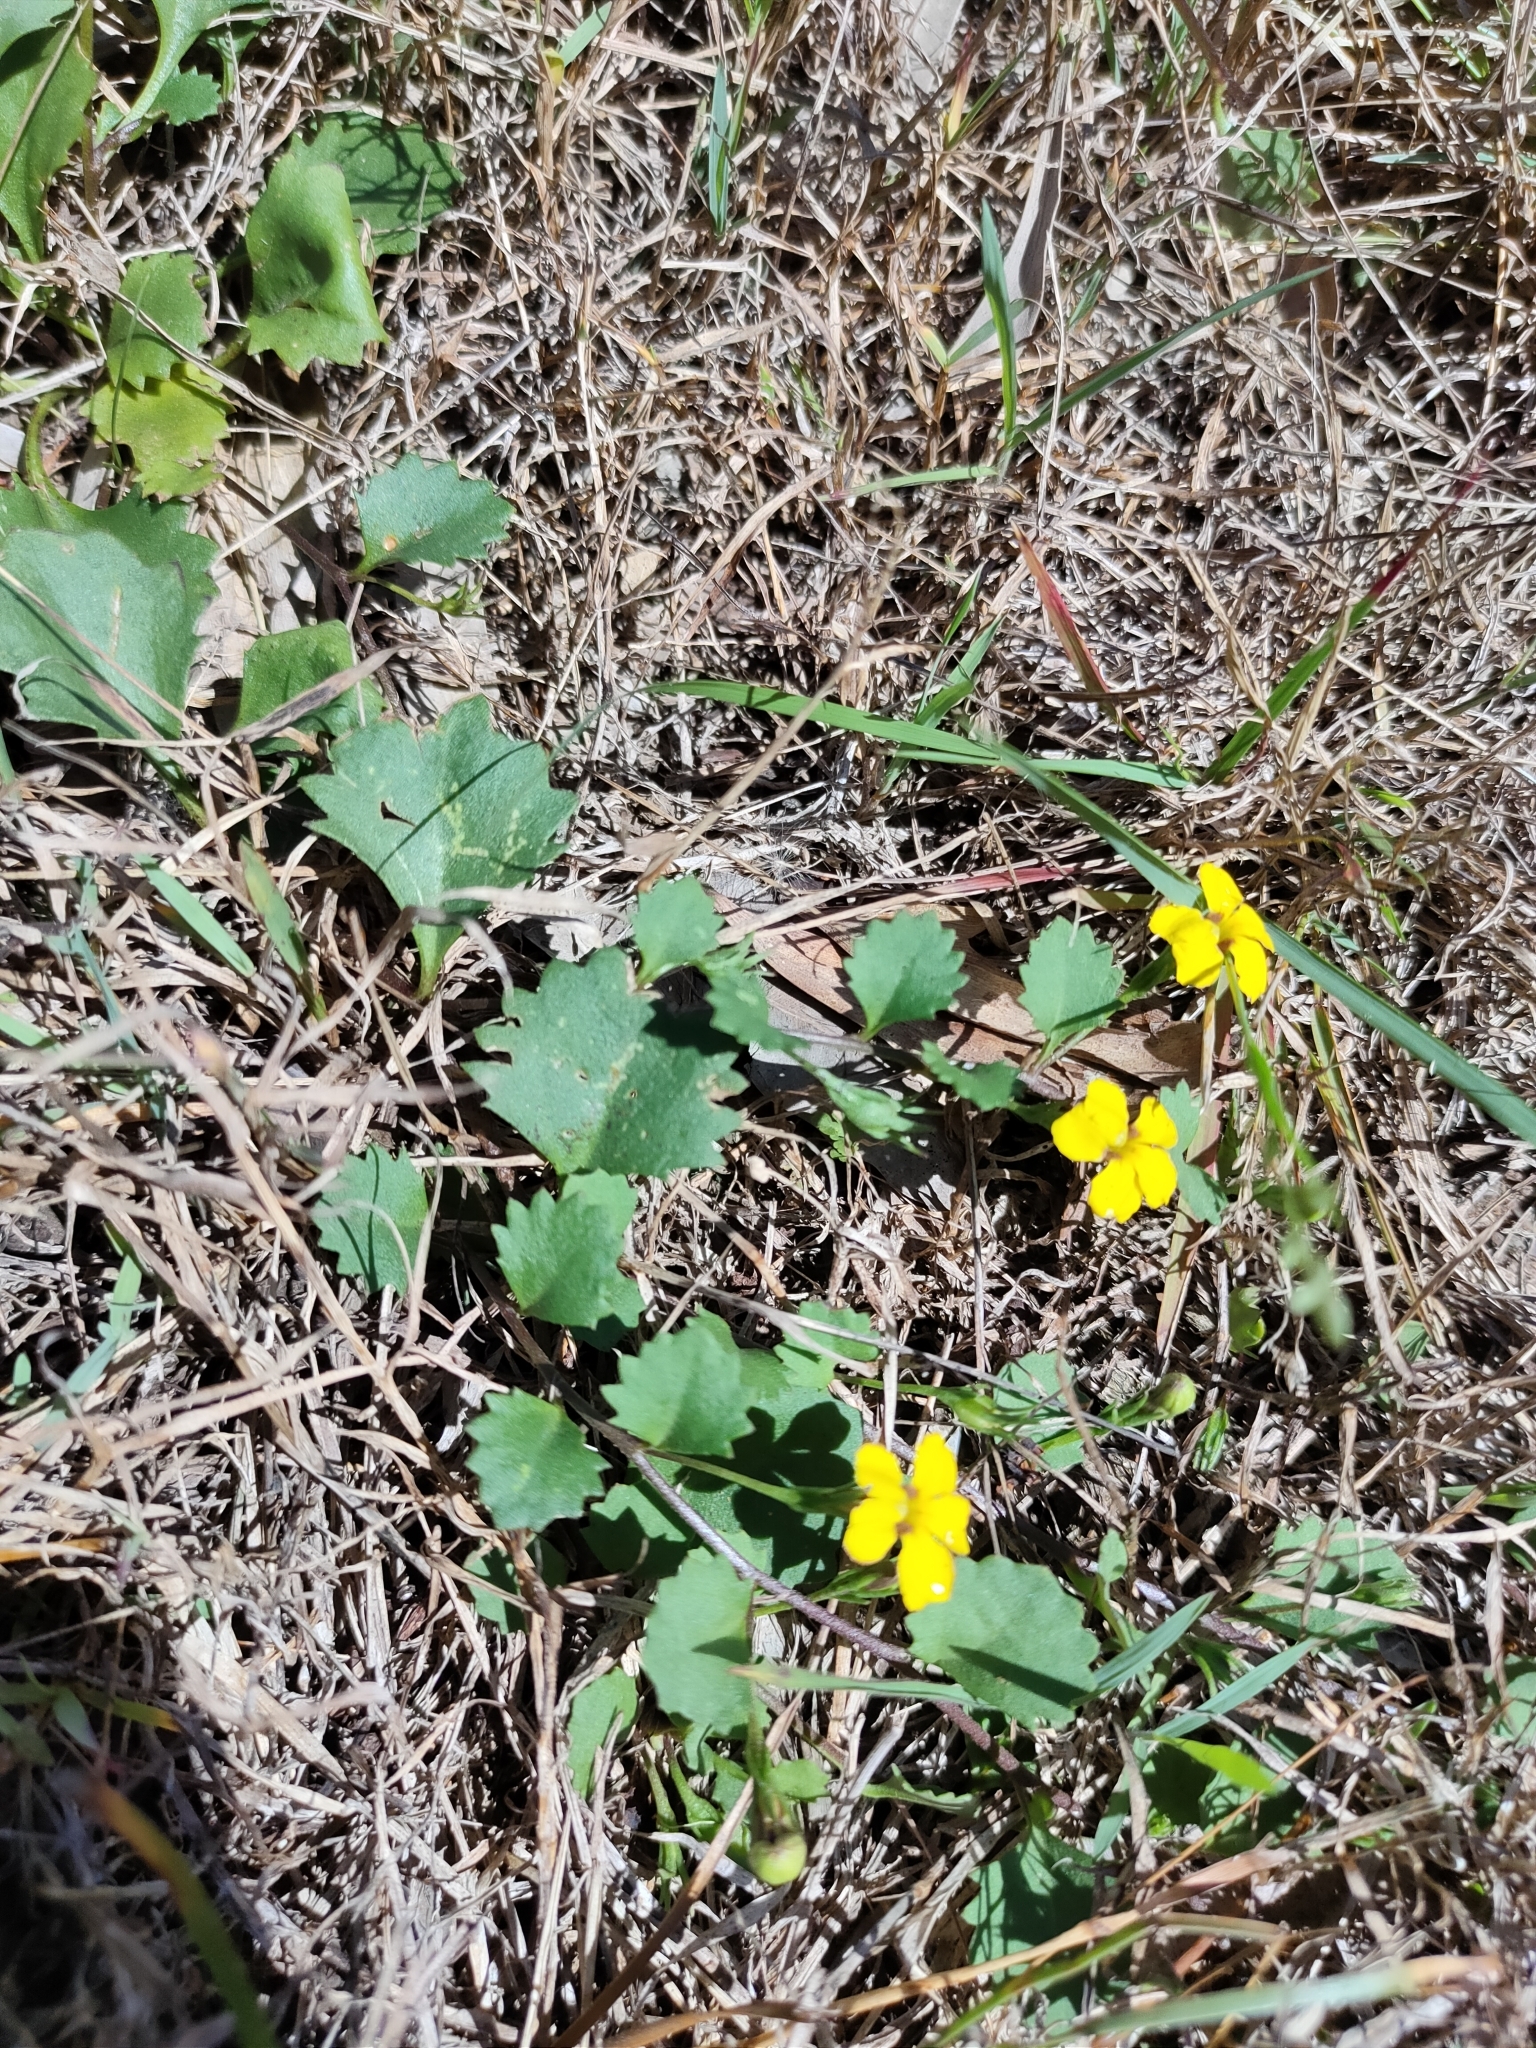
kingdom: Plantae
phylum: Tracheophyta
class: Magnoliopsida
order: Asterales
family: Goodeniaceae
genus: Goodenia
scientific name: Goodenia rotundifolia
